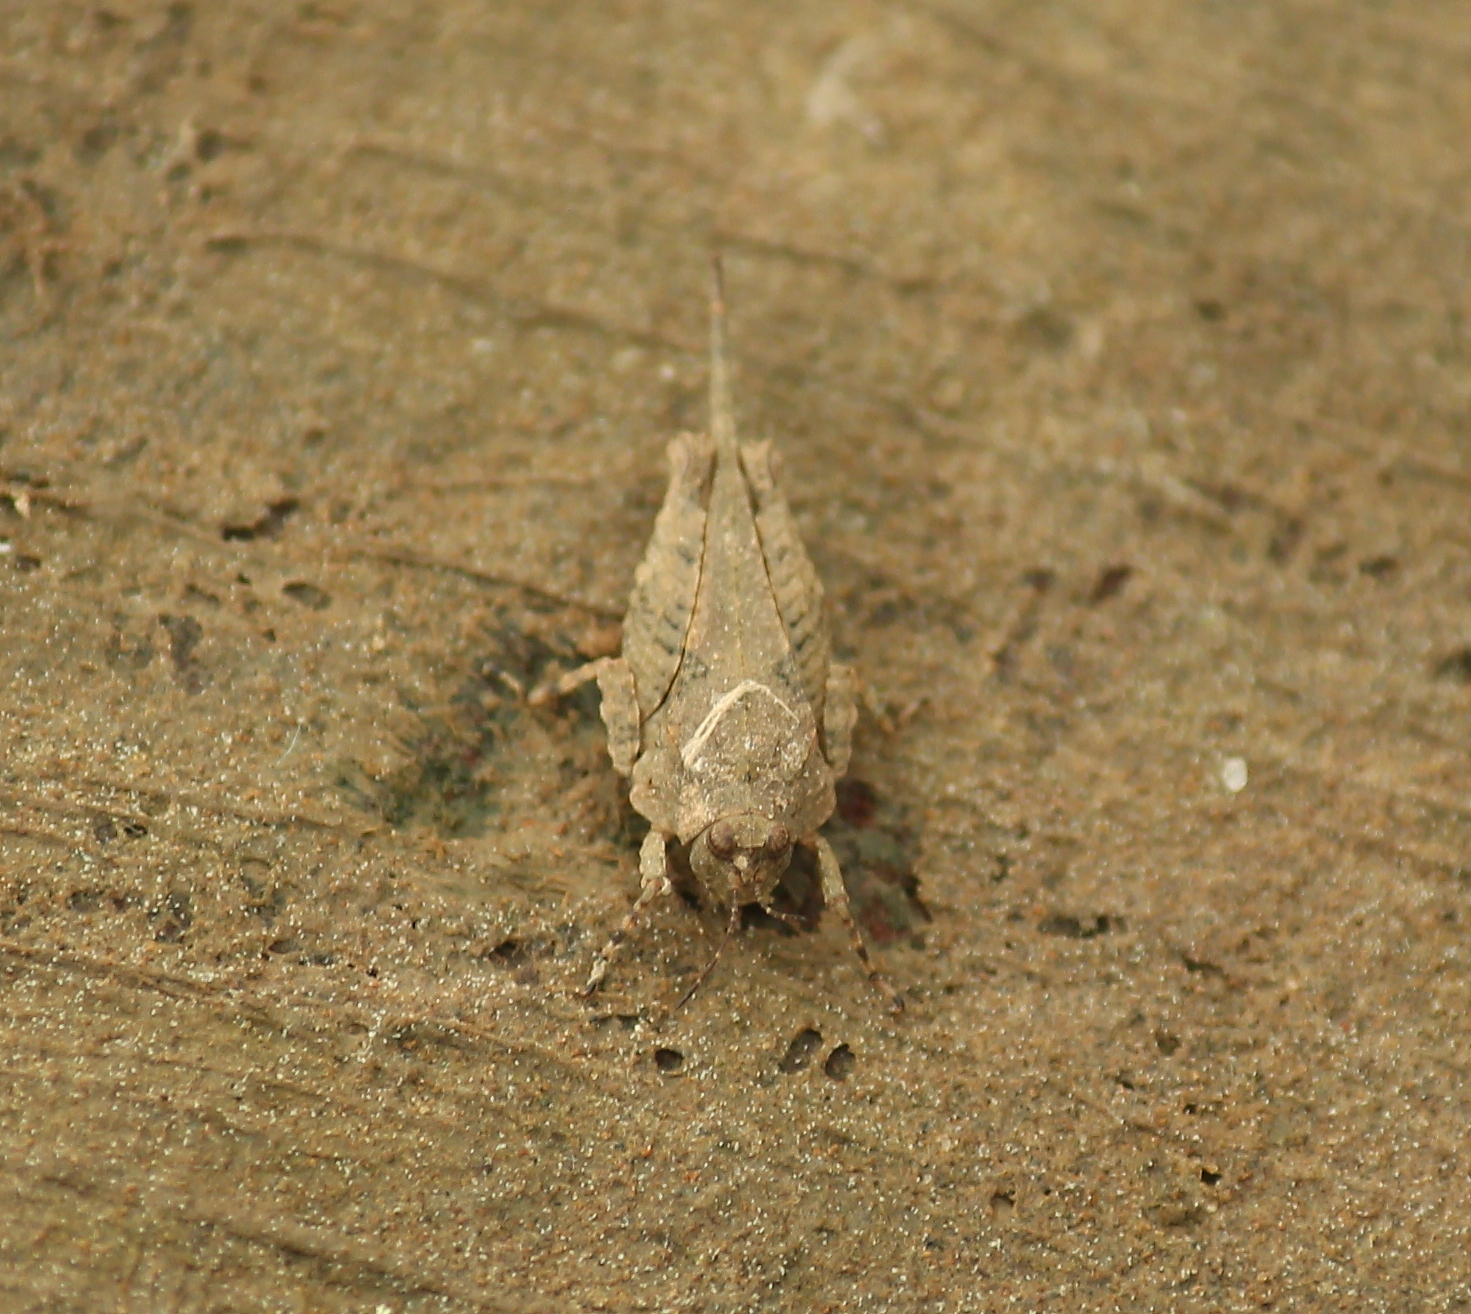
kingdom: Animalia
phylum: Arthropoda
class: Insecta
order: Orthoptera
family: Tetrigidae
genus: Paratettix
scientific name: Paratettix cucullatus
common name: Hooded grouse locust
